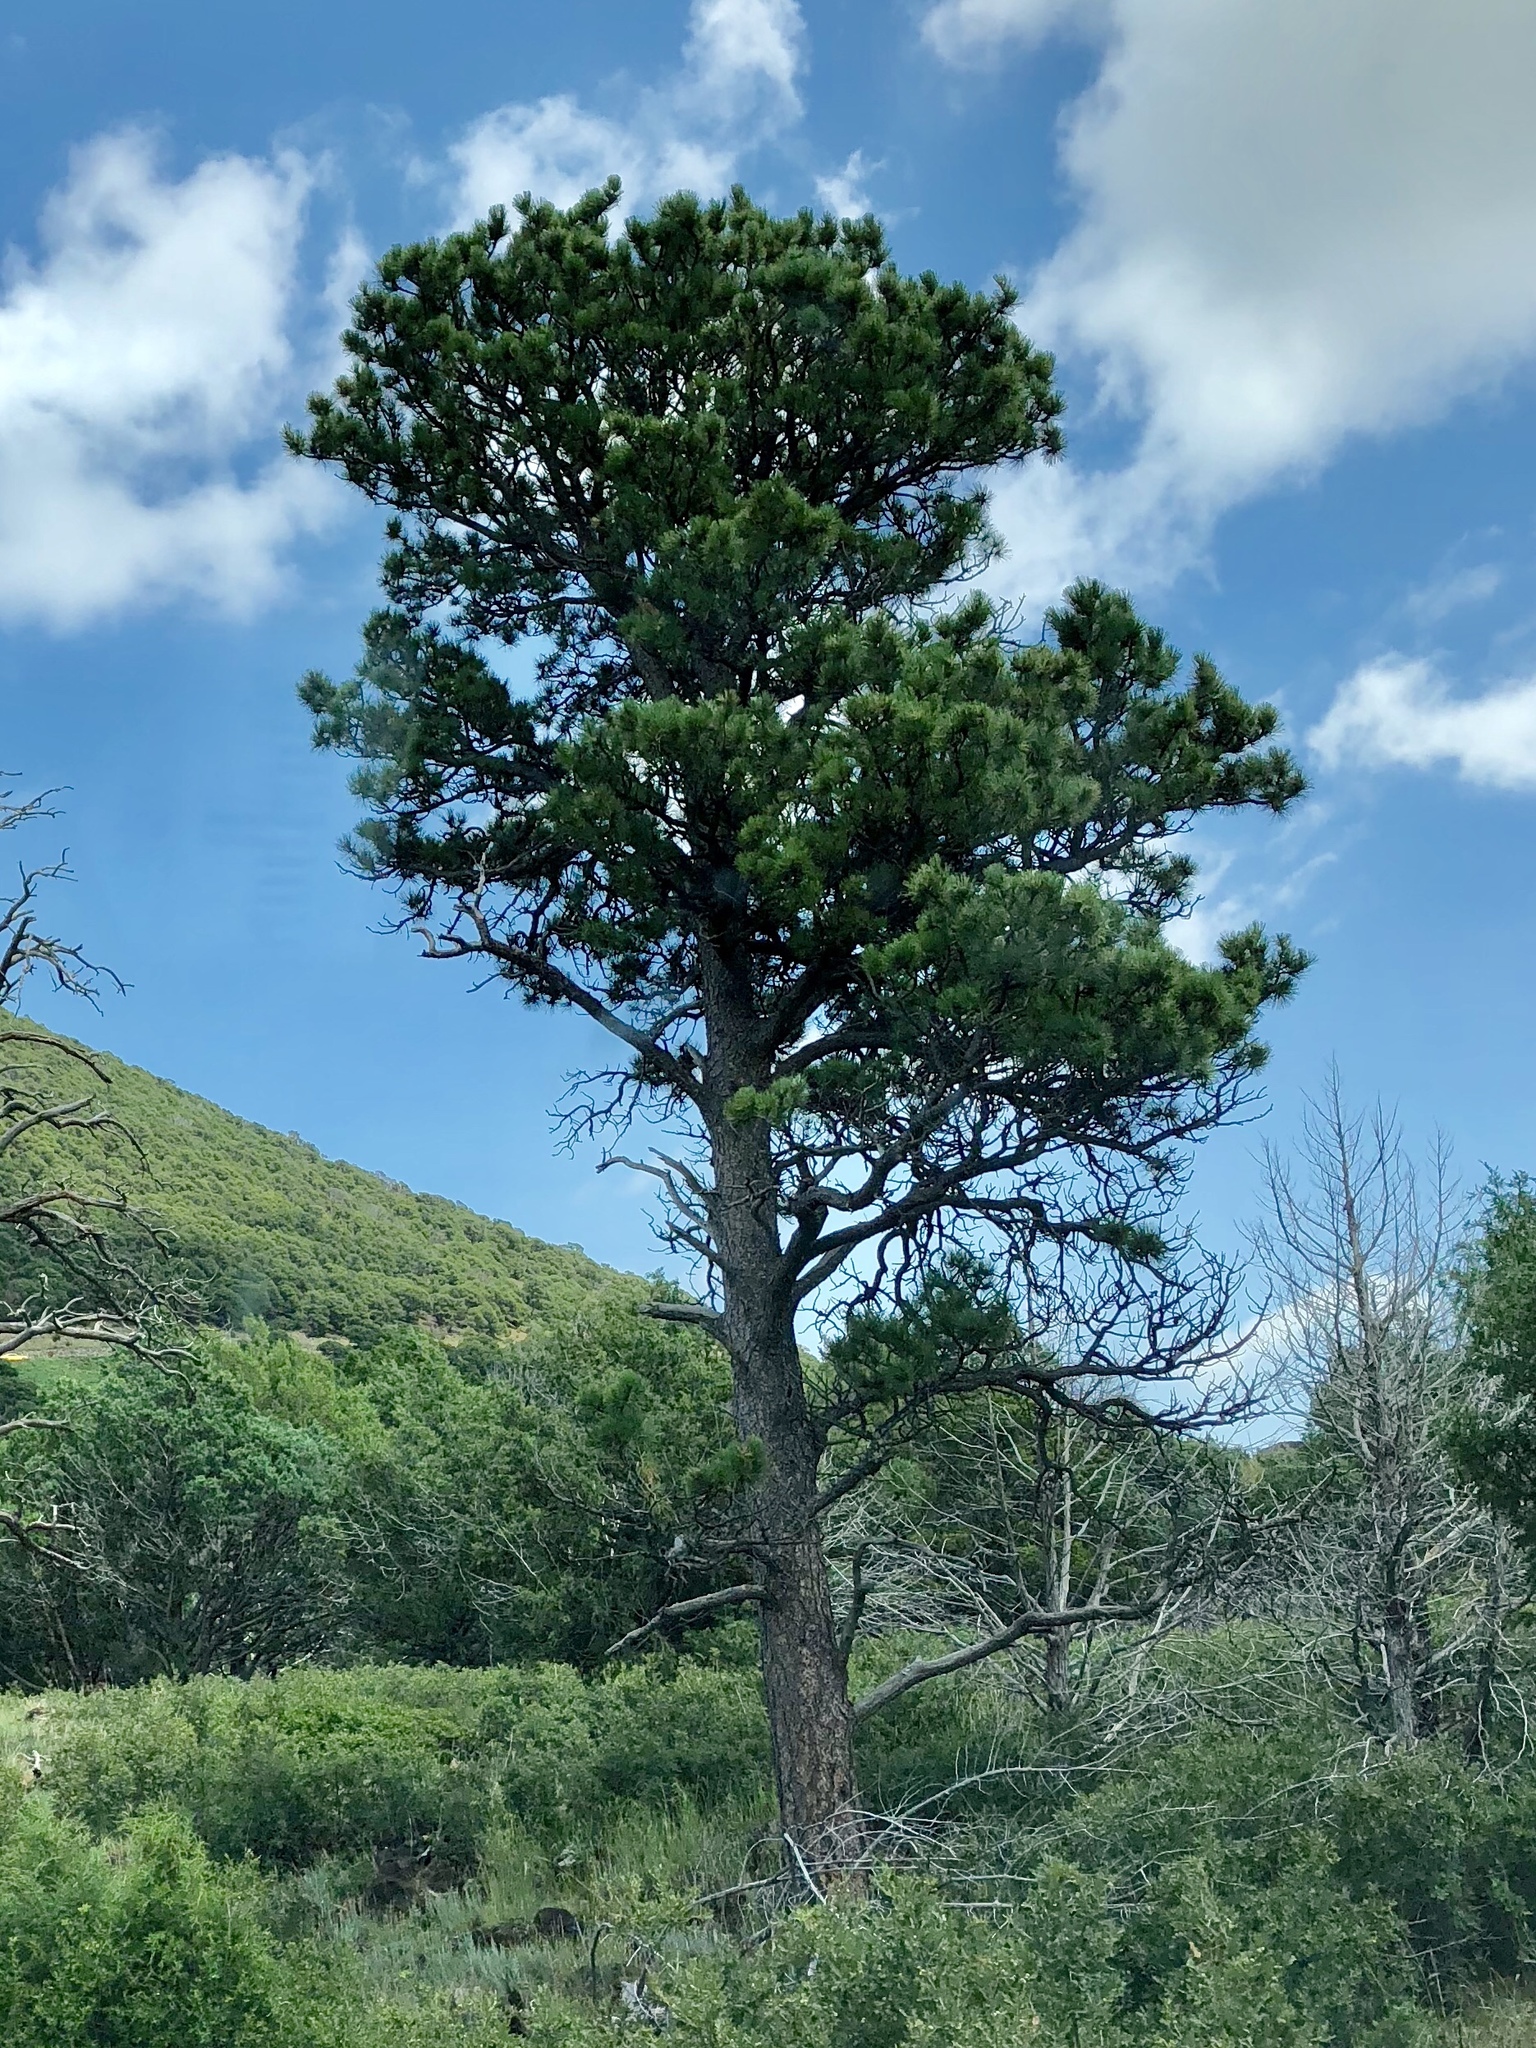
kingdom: Plantae
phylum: Tracheophyta
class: Pinopsida
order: Pinales
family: Pinaceae
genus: Pinus
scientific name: Pinus ponderosa
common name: Western yellow-pine
